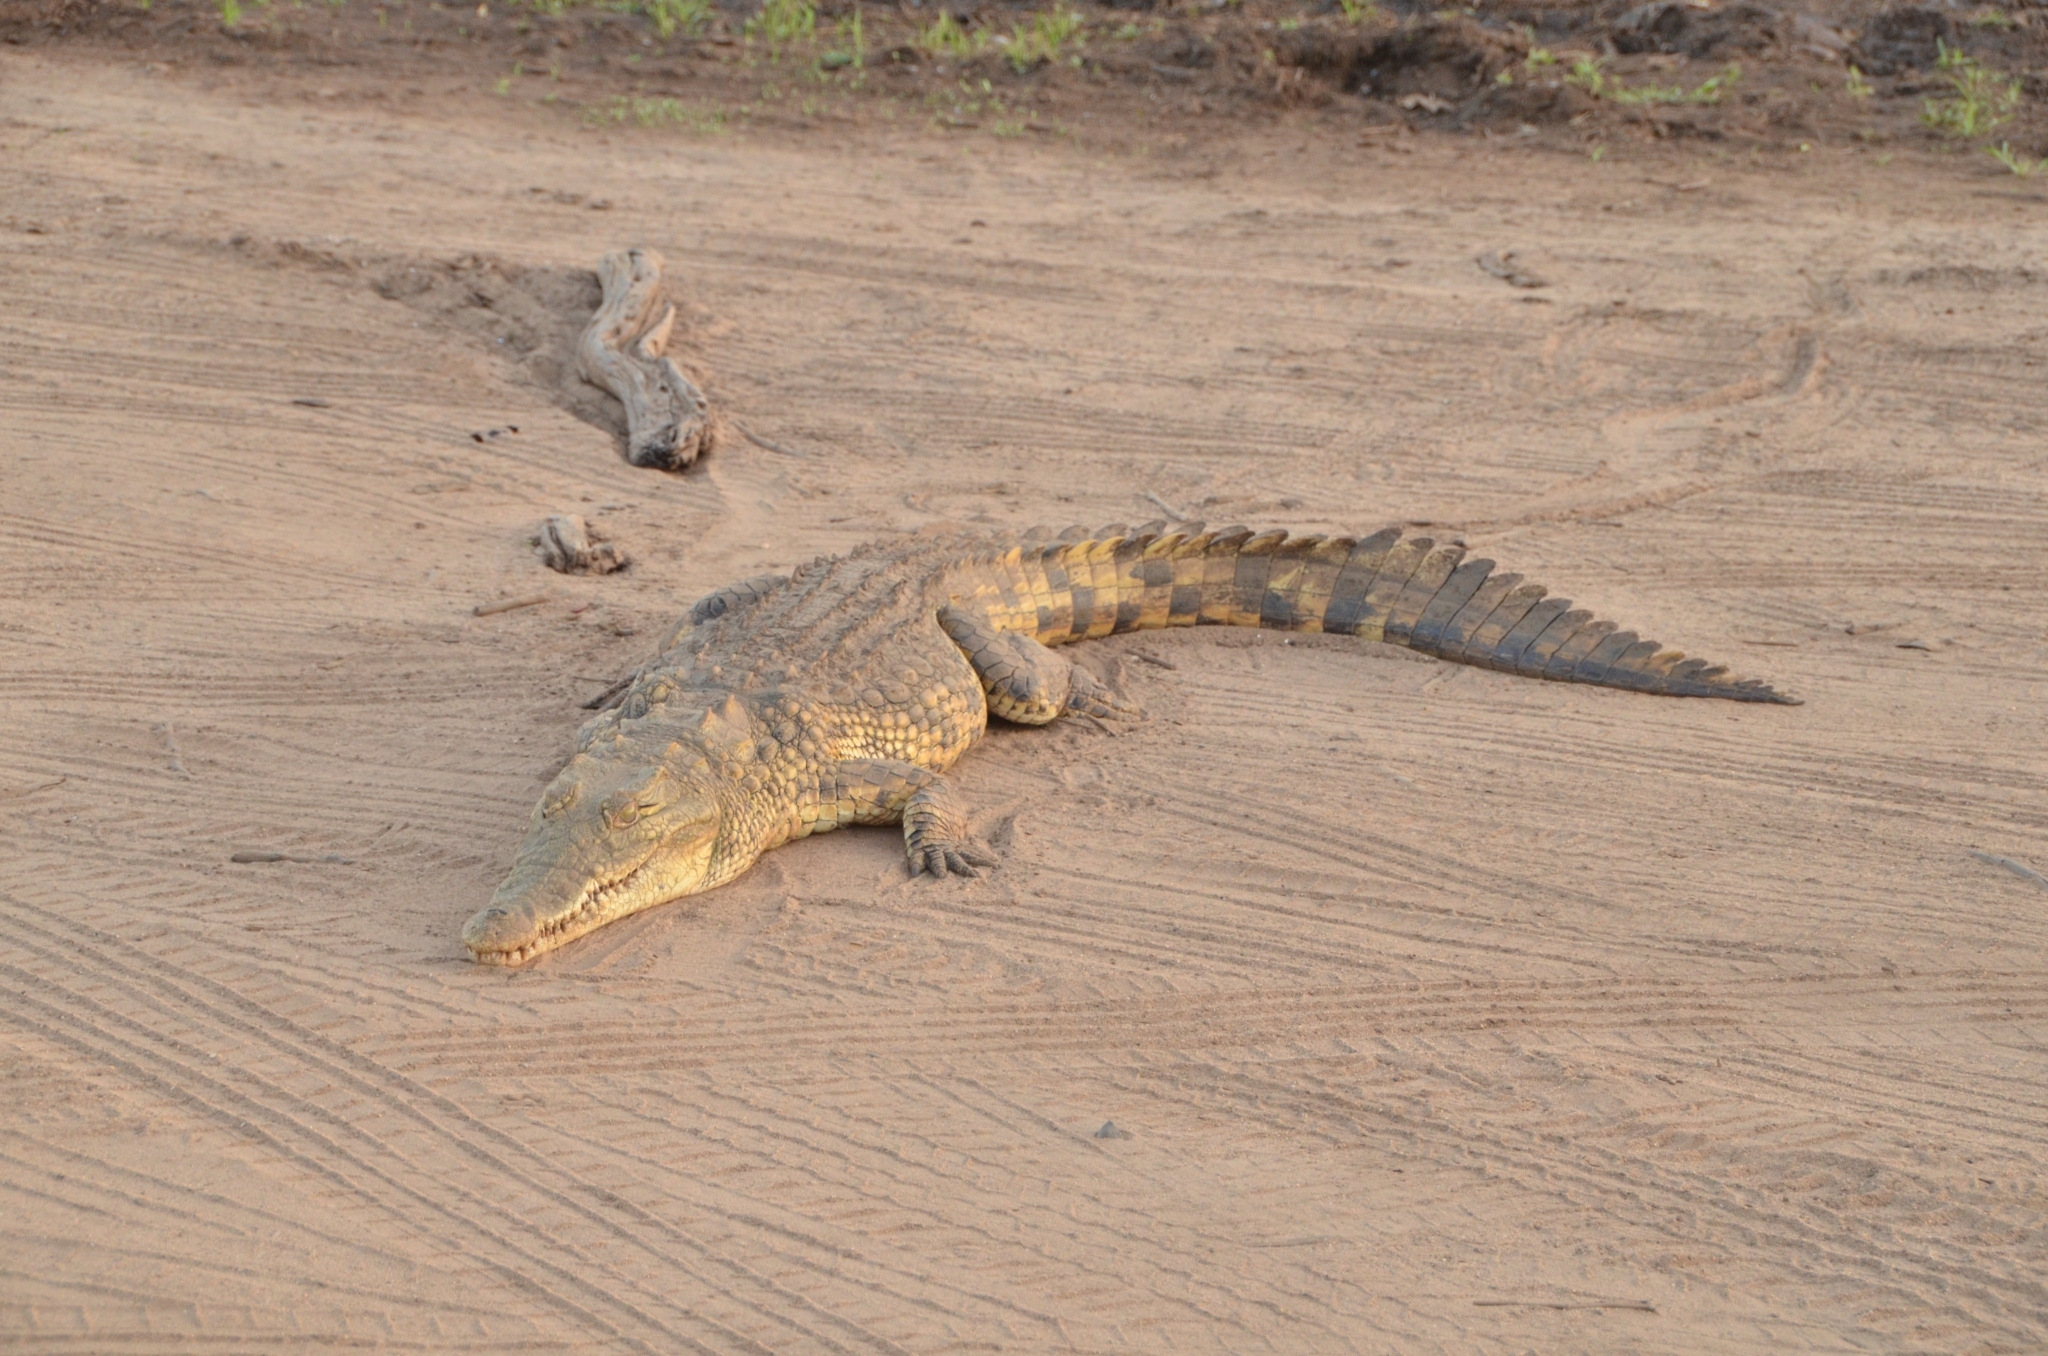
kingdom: Animalia
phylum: Chordata
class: Crocodylia
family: Crocodylidae
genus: Crocodylus
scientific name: Crocodylus niloticus
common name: Nile crocodile
